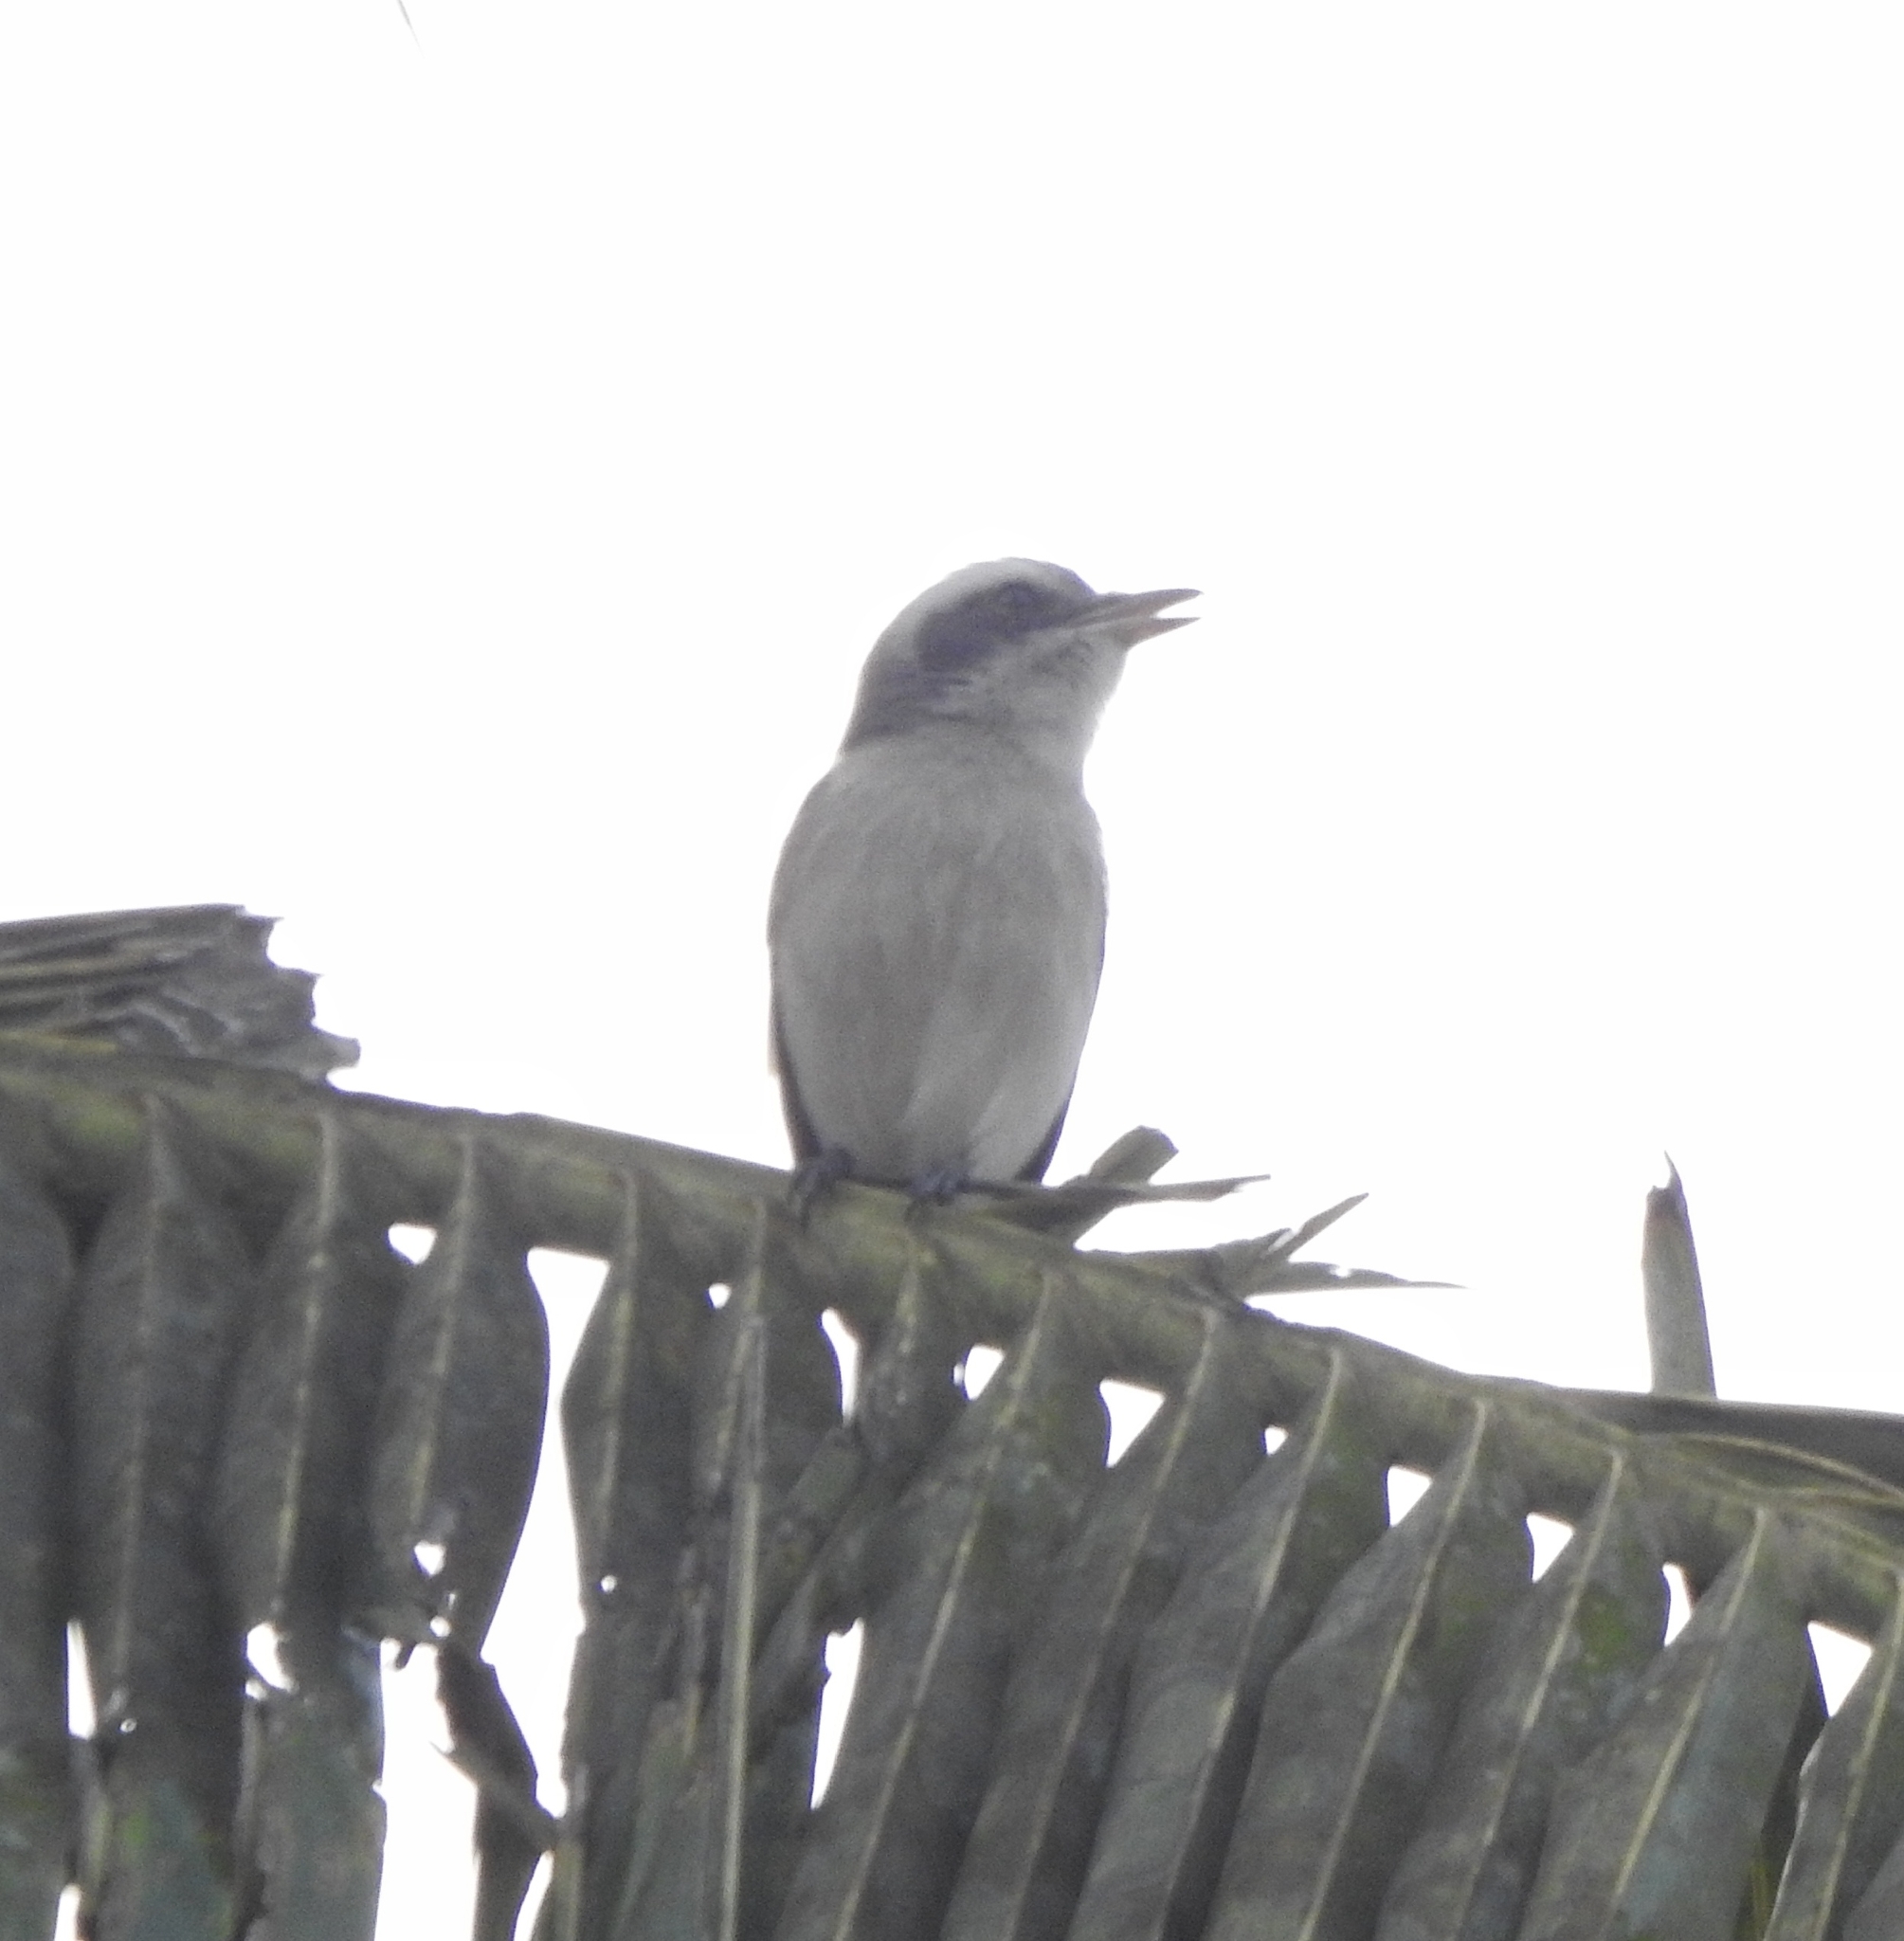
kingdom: Animalia
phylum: Chordata
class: Aves
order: Passeriformes
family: Tephrodornithidae
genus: Tephrodornis
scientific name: Tephrodornis pondicerianus
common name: Common woodshrike
